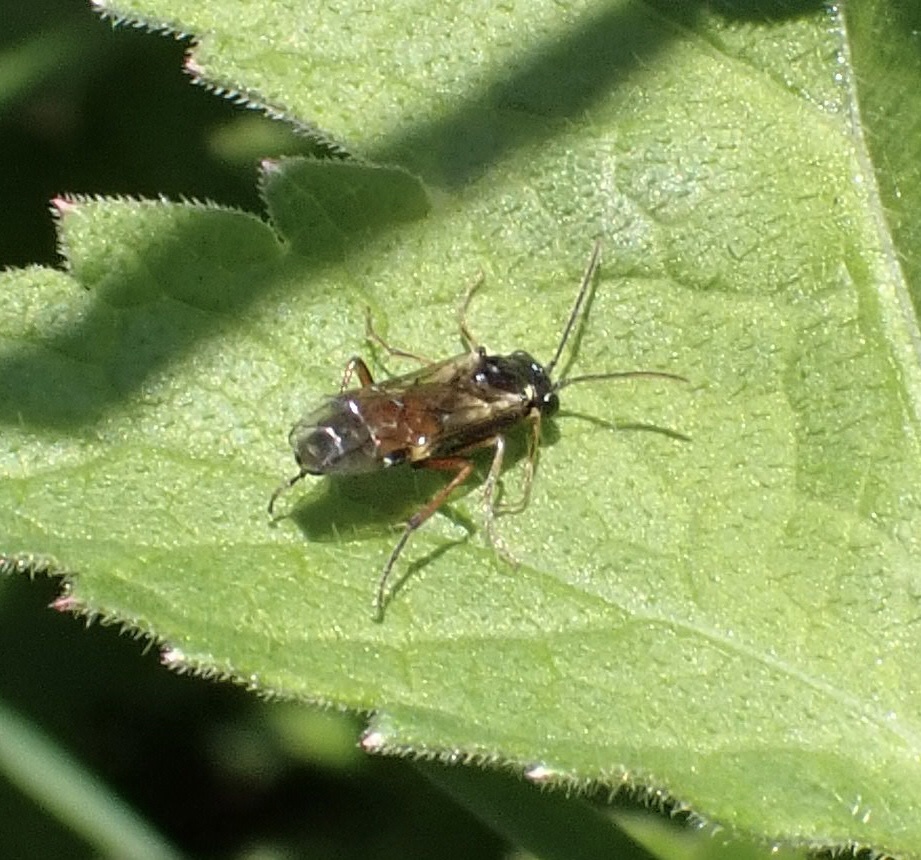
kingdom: Animalia
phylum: Arthropoda
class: Insecta
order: Hymenoptera
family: Tenthredinidae
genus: Aglaostigma
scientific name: Aglaostigma aucupariae
